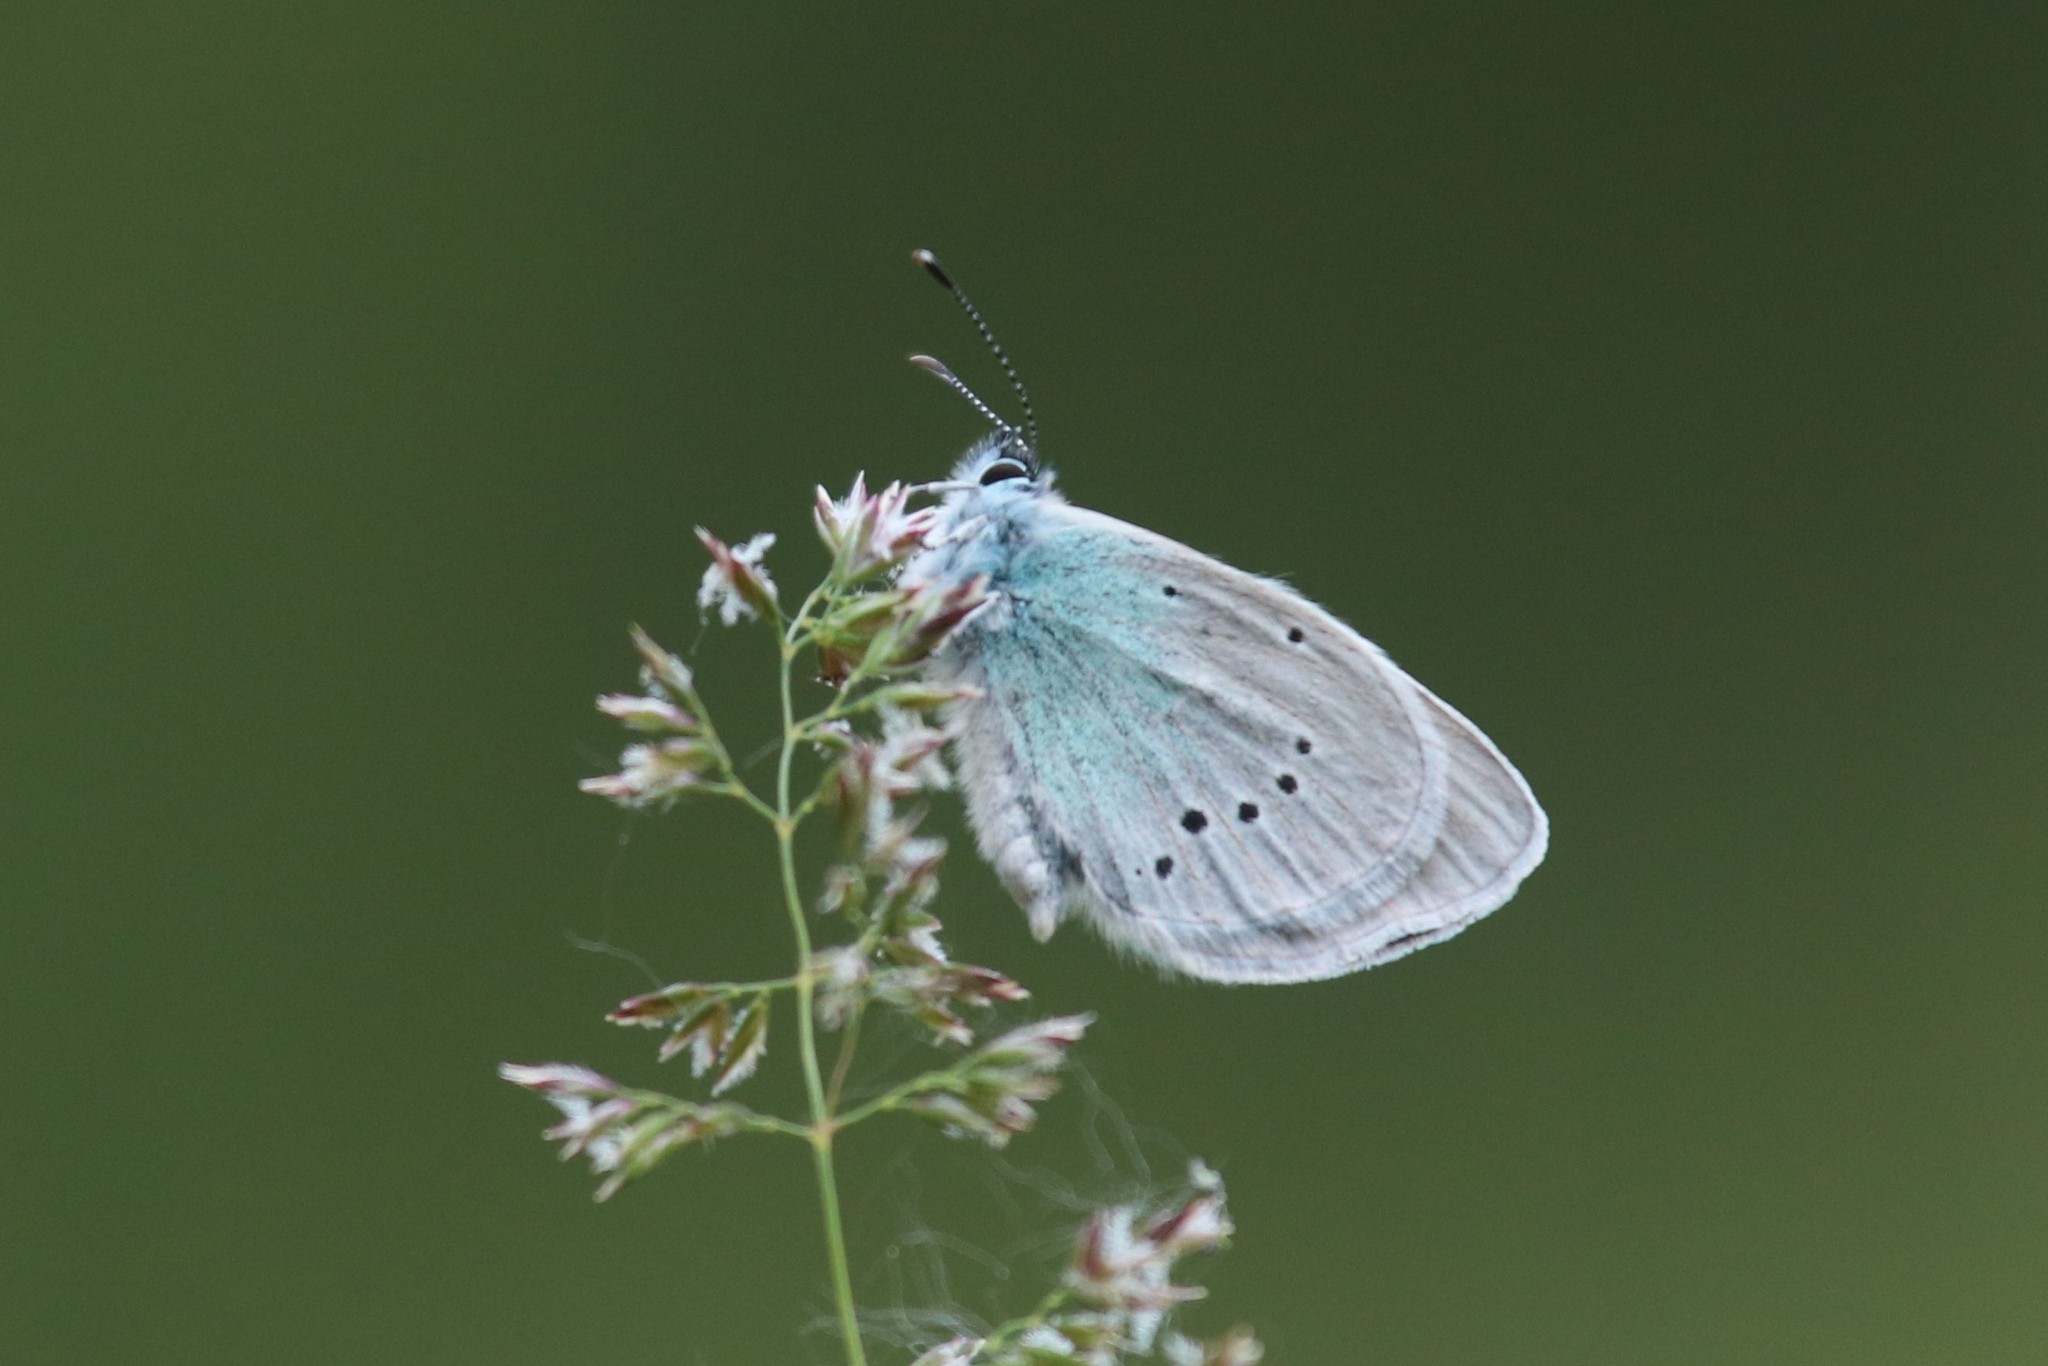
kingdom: Animalia
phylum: Arthropoda
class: Insecta
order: Lepidoptera
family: Lycaenidae
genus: Glaucopsyche
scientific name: Glaucopsyche alexis
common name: Green-underside blue
